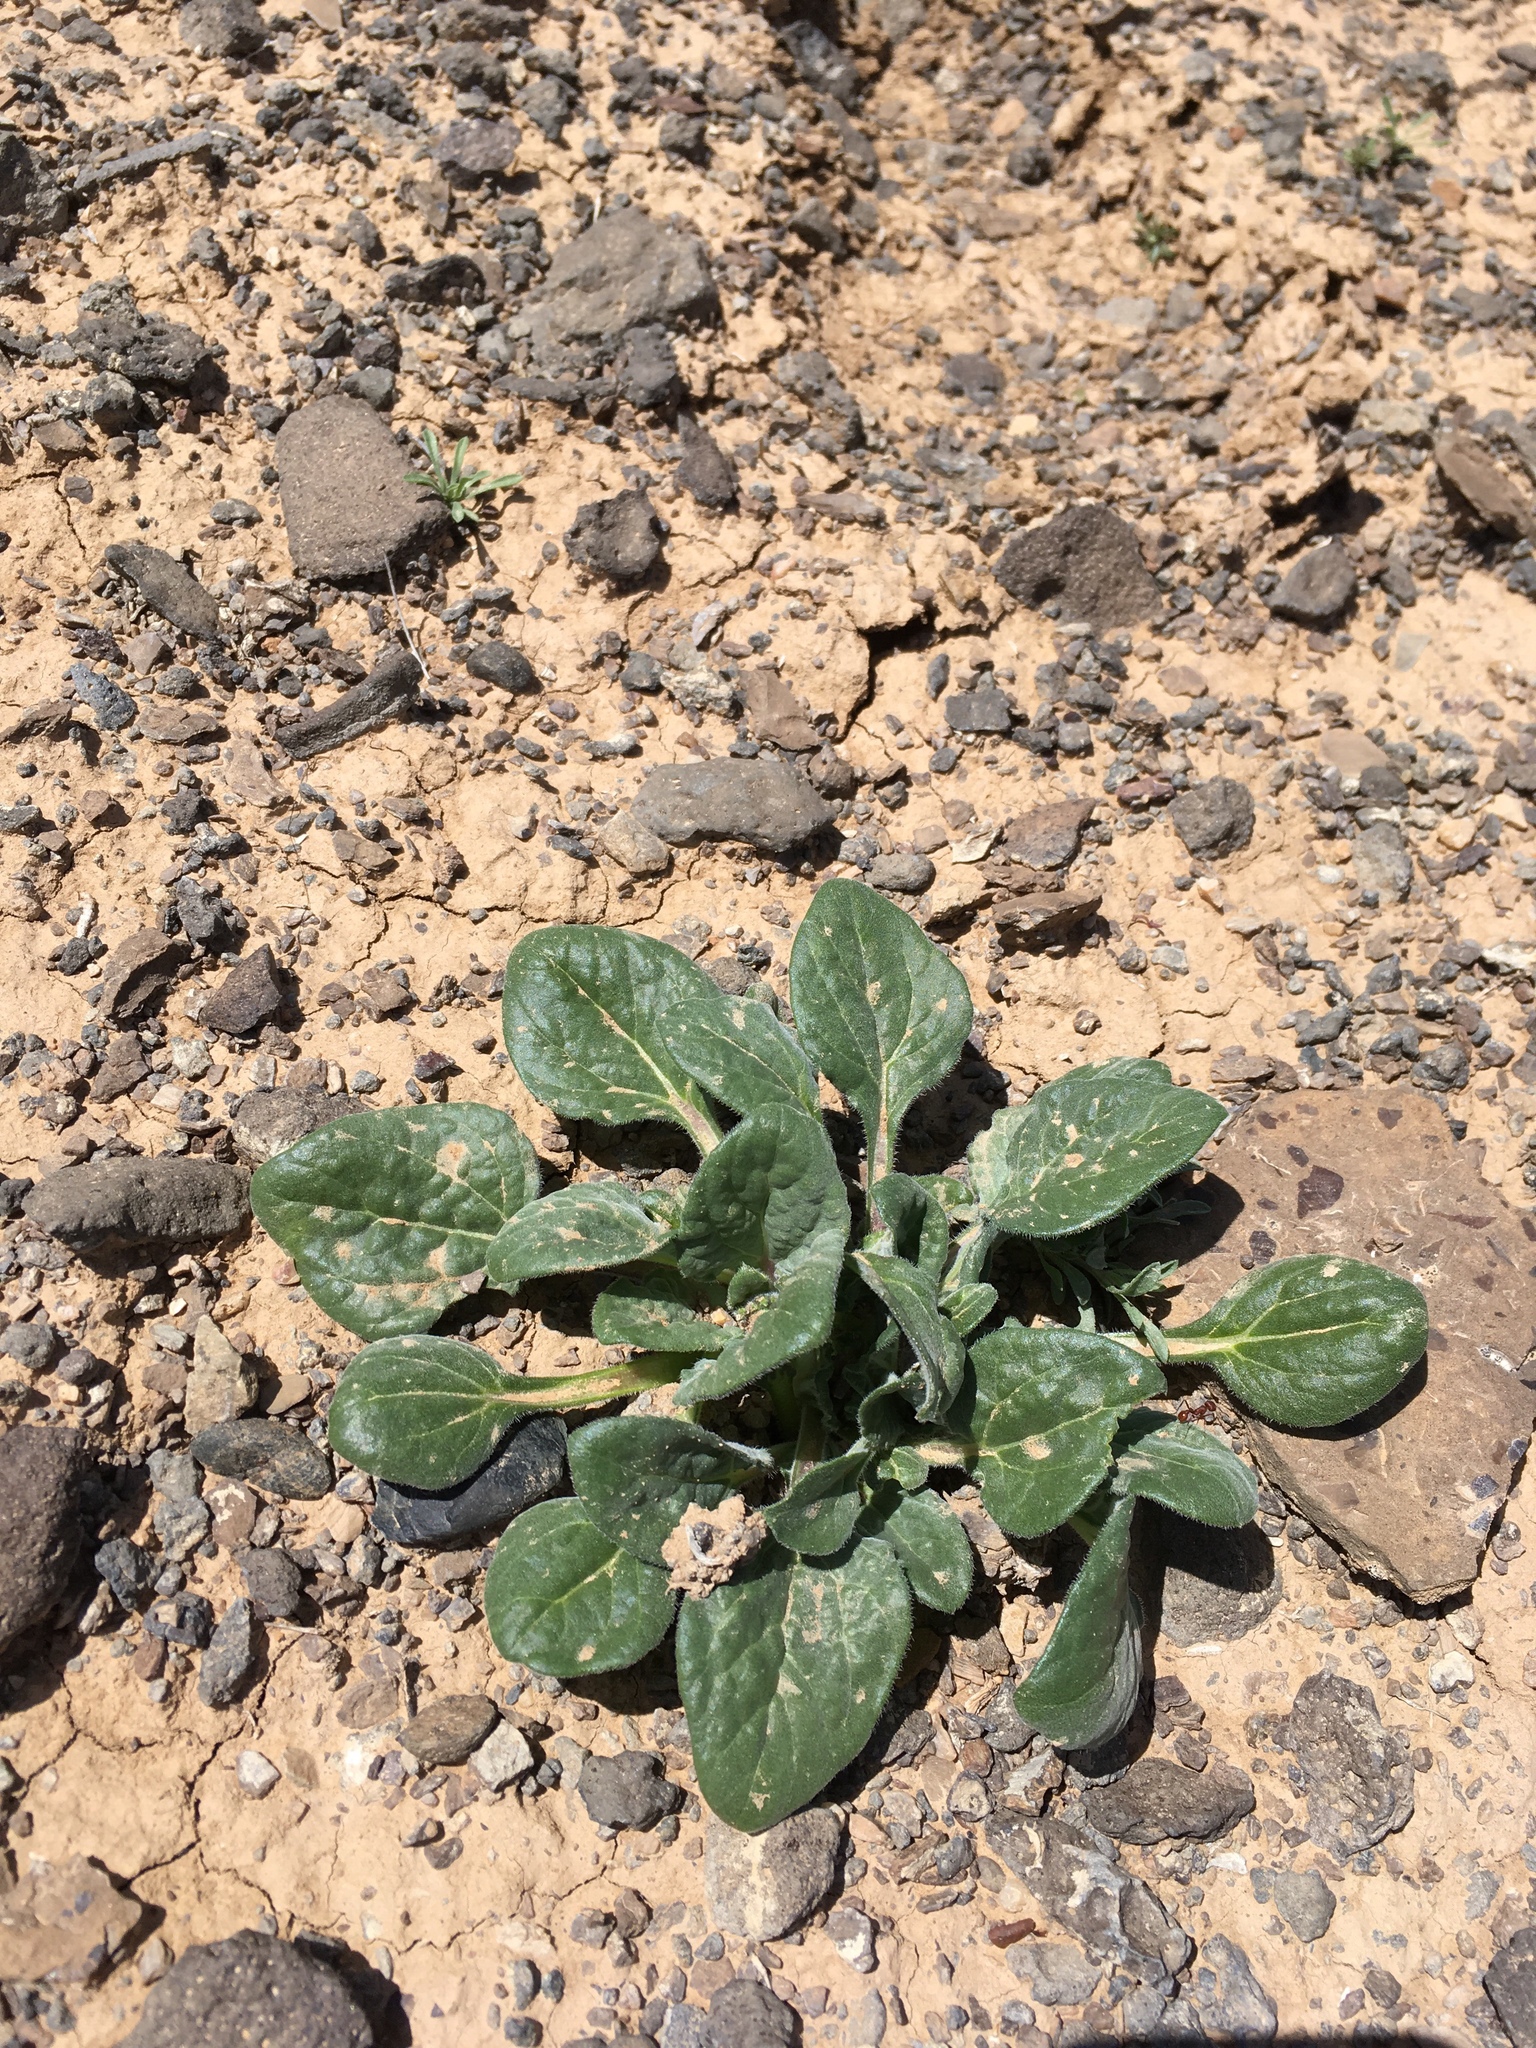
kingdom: Plantae
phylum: Tracheophyta
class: Magnoliopsida
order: Asterales
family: Asteraceae
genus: Encelia
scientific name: Encelia nutans
